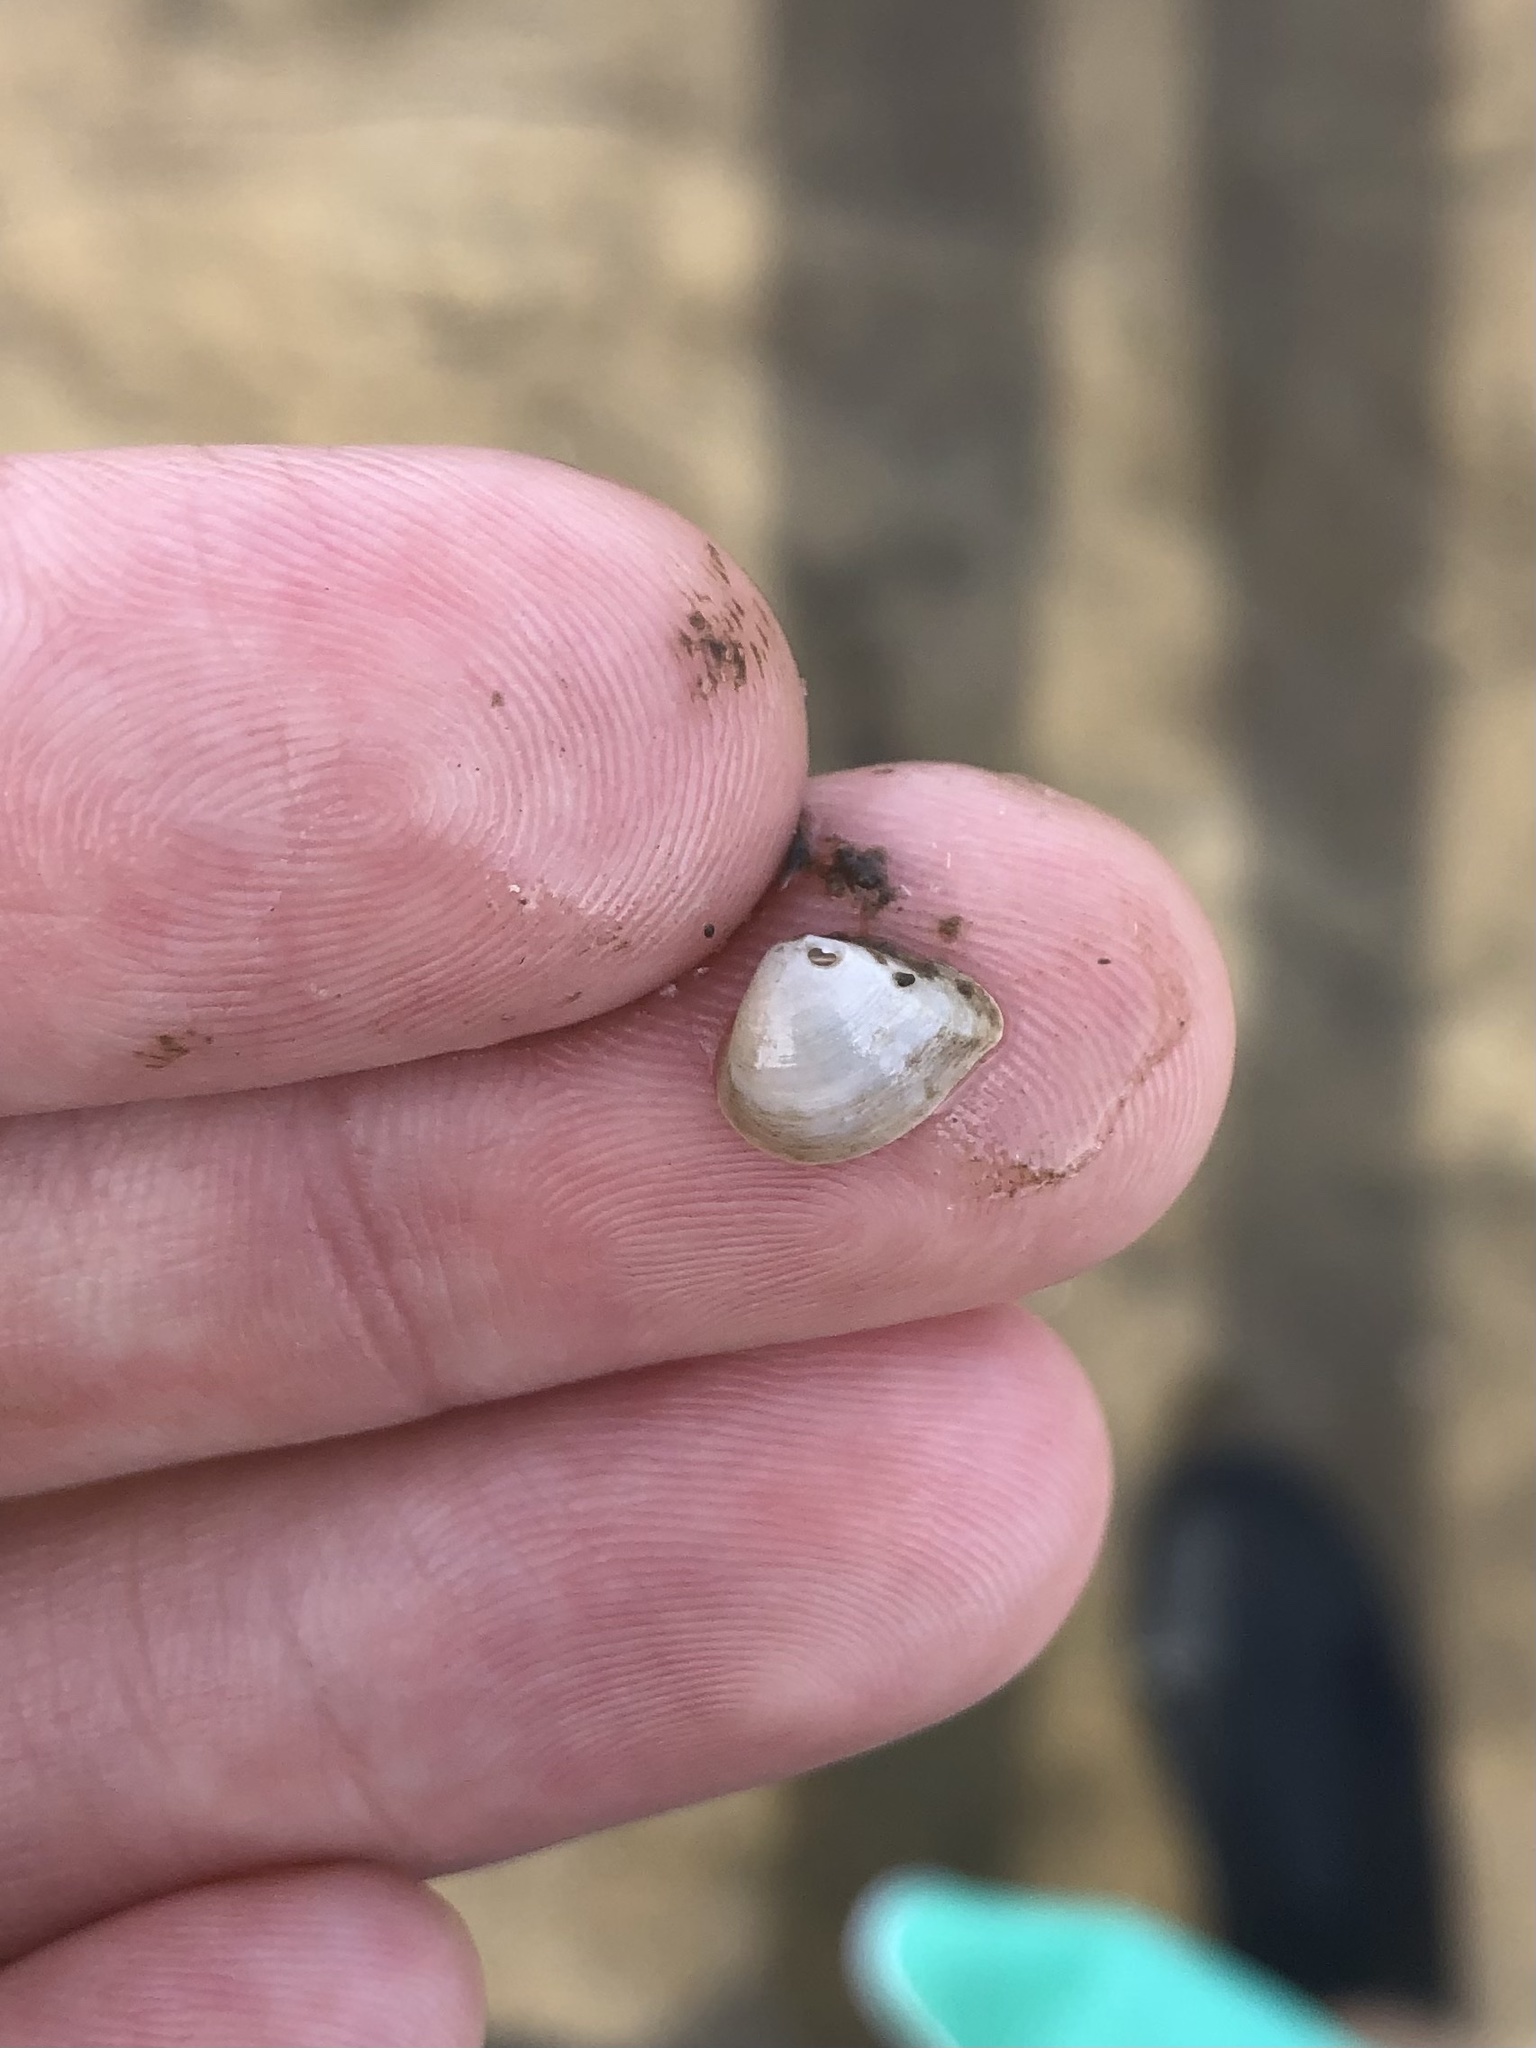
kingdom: Animalia
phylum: Mollusca
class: Bivalvia
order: Venerida
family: Mactridae
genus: Mulinia
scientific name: Mulinia lateralis
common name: Dwarf surfclam
